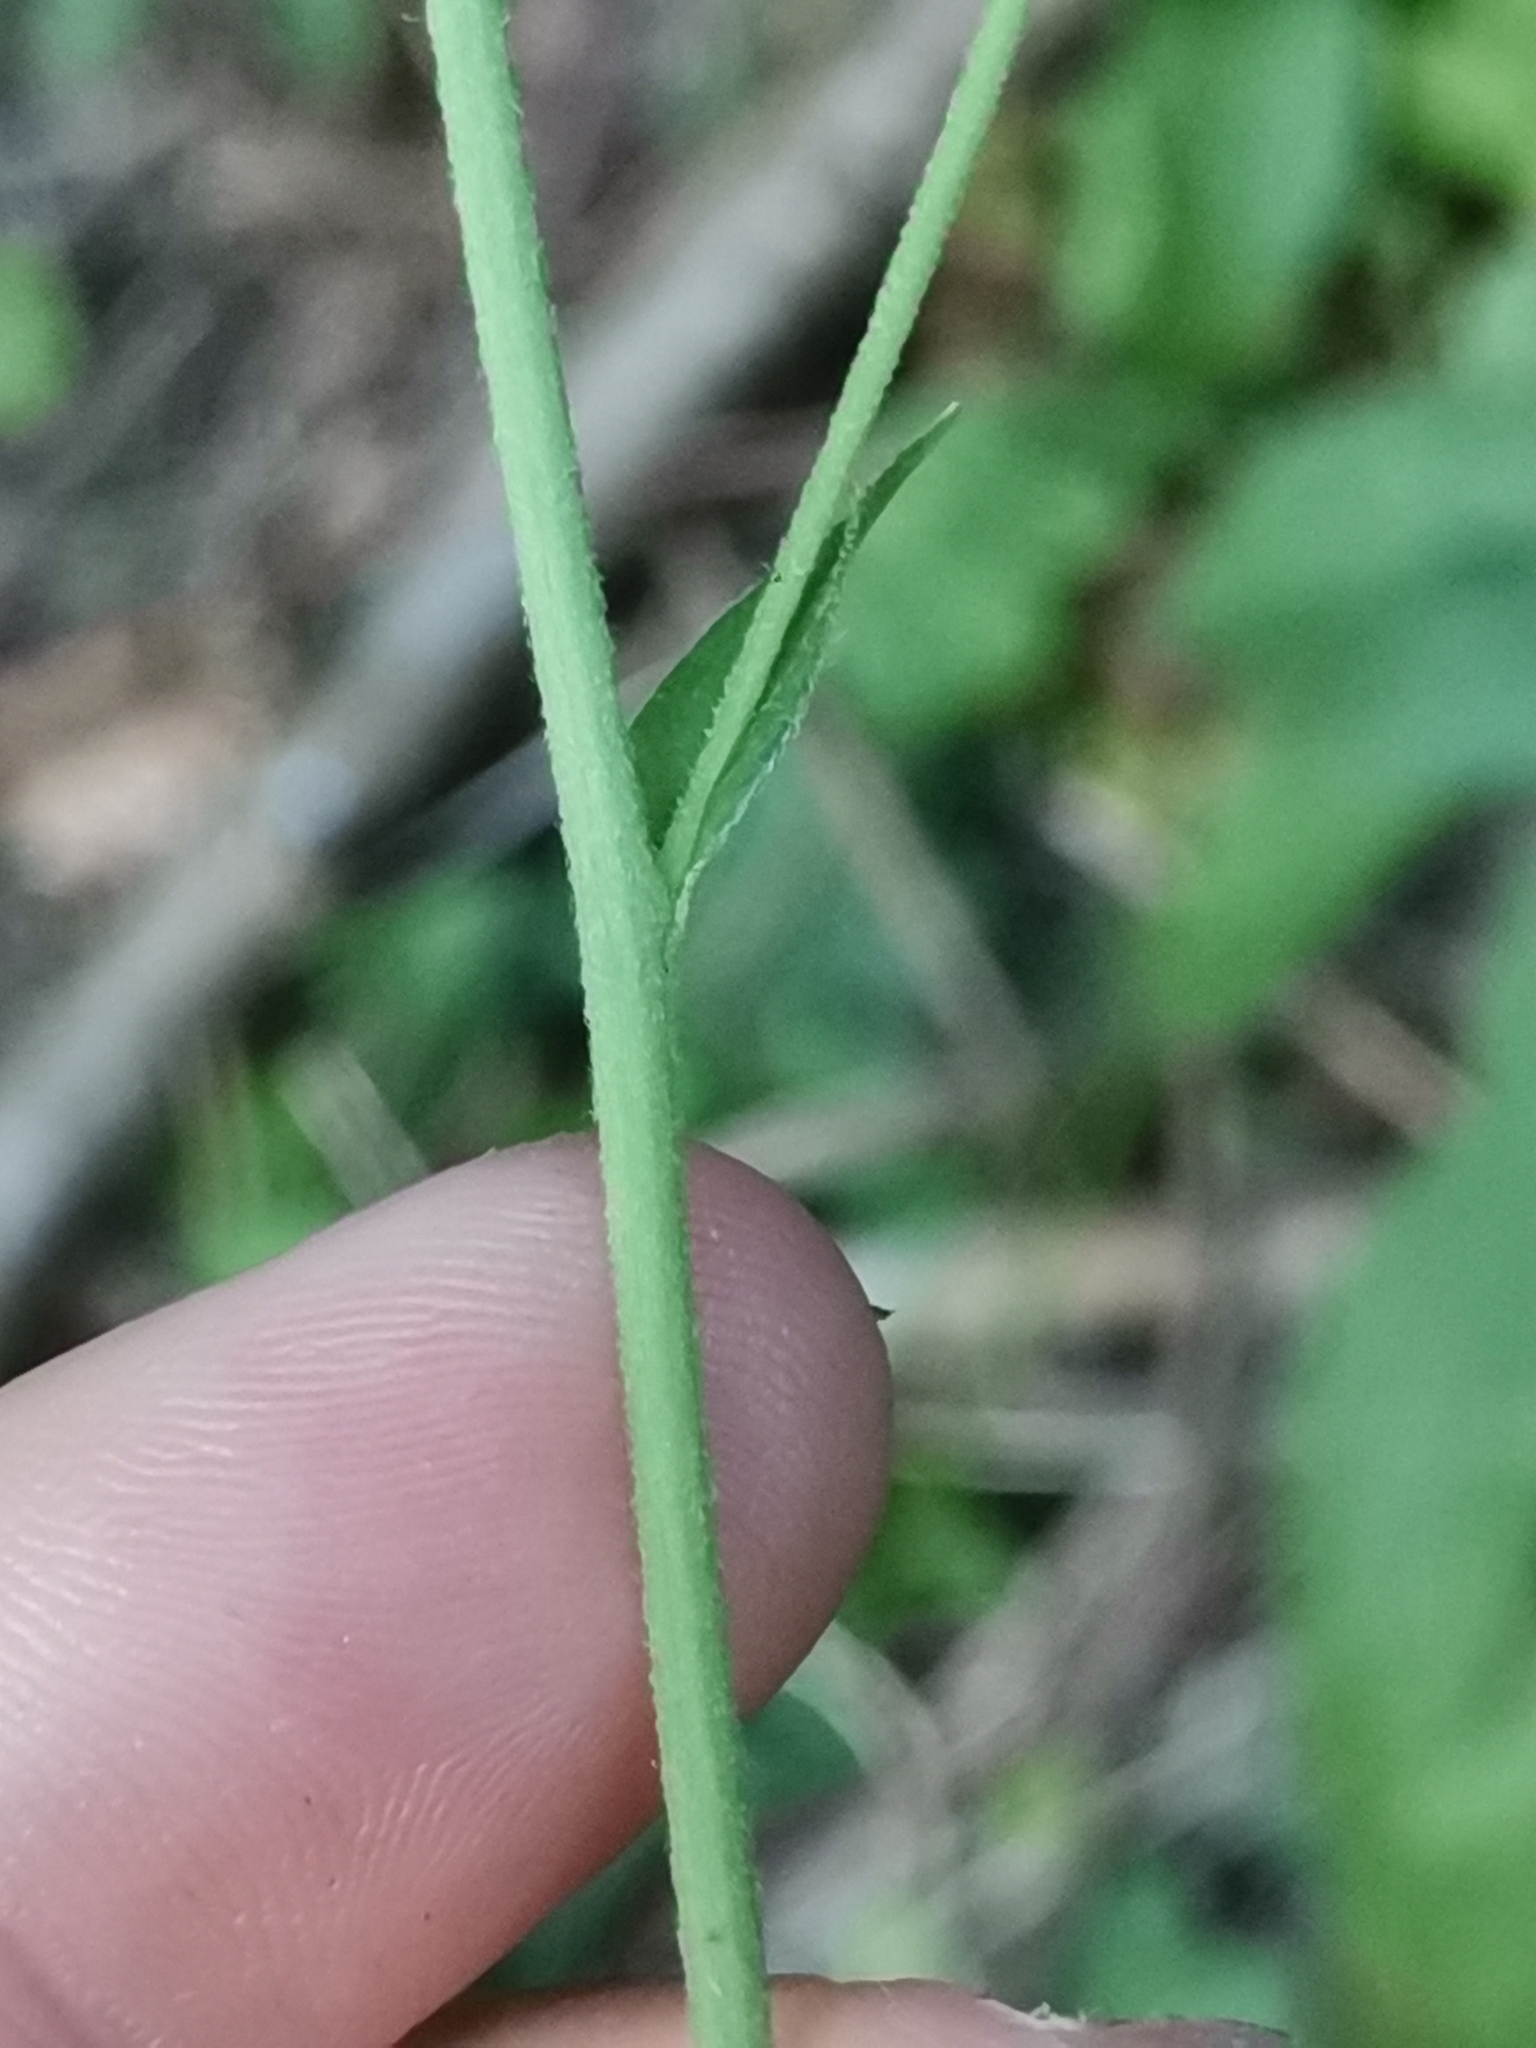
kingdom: Plantae
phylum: Tracheophyta
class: Magnoliopsida
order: Asterales
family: Asteraceae
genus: Hieracium
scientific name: Hieracium sabaudum
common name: New england hawkweed
